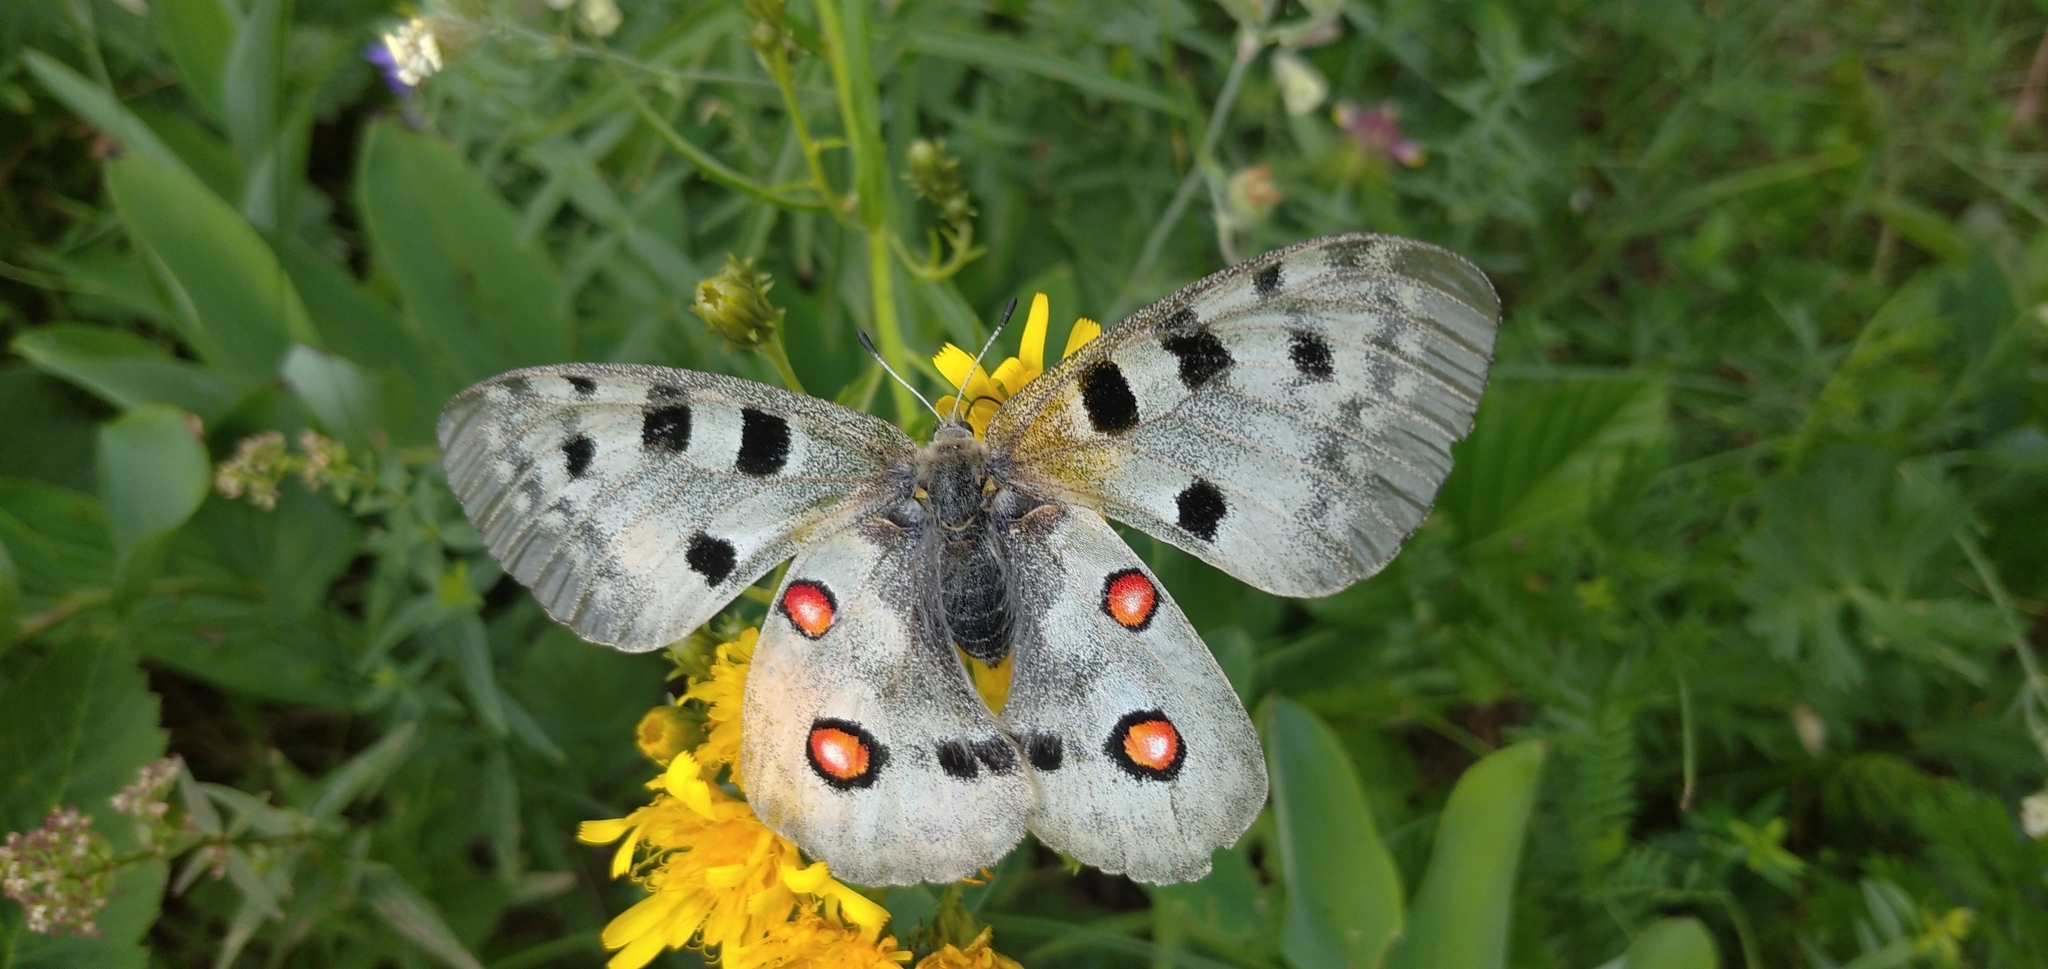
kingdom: Animalia
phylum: Arthropoda
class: Insecta
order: Lepidoptera
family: Papilionidae
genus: Parnassius
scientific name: Parnassius apollo
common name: Apollo
